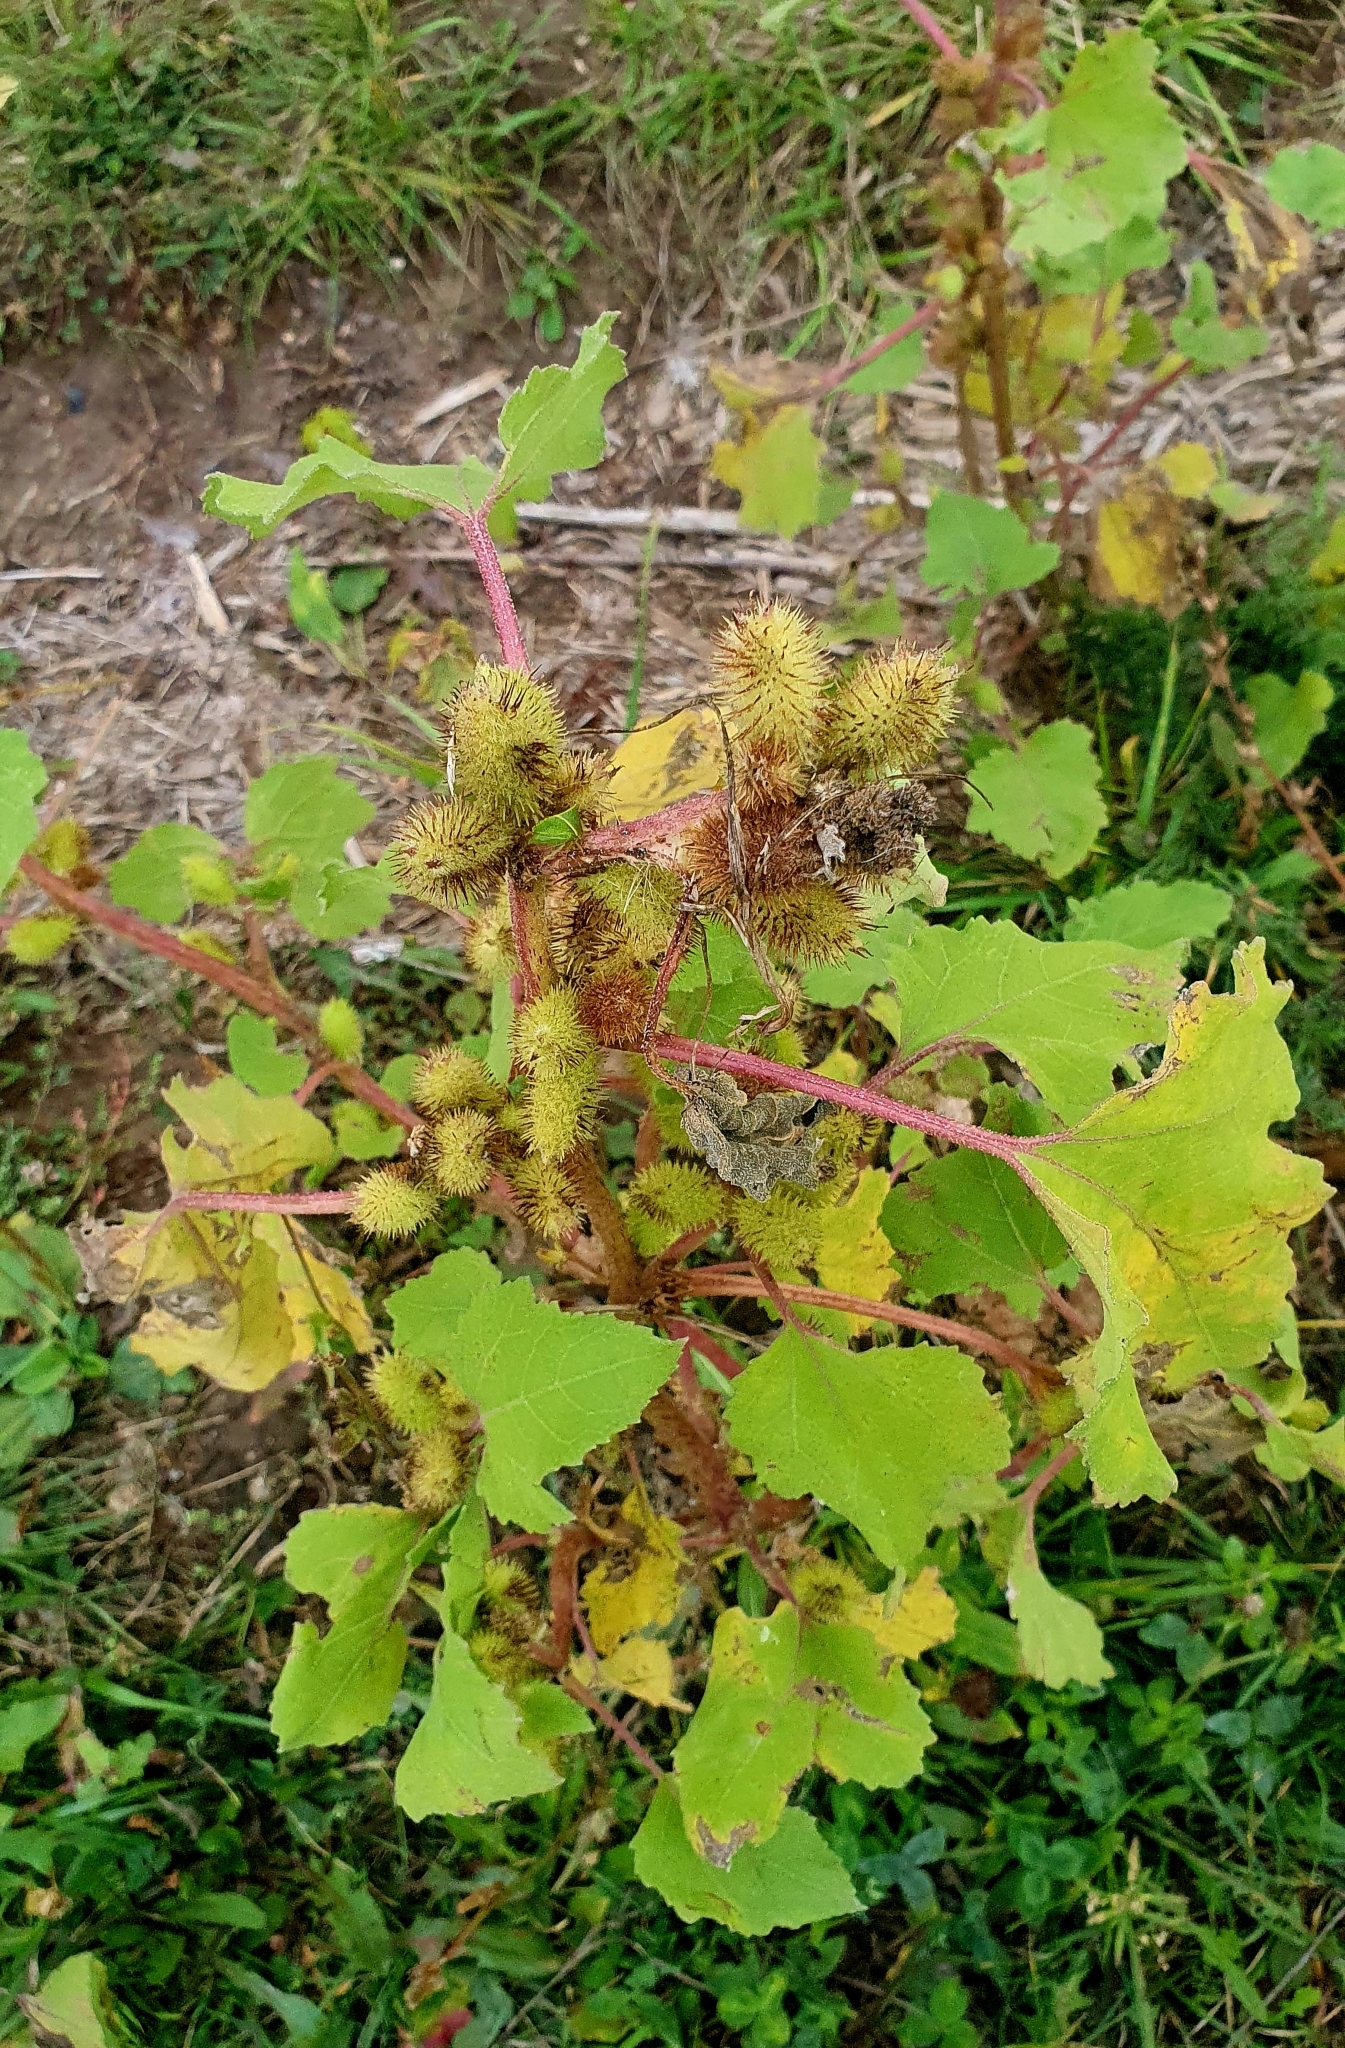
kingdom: Plantae
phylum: Tracheophyta
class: Magnoliopsida
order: Asterales
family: Asteraceae
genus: Xanthium
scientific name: Xanthium orientale
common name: Californian burr
